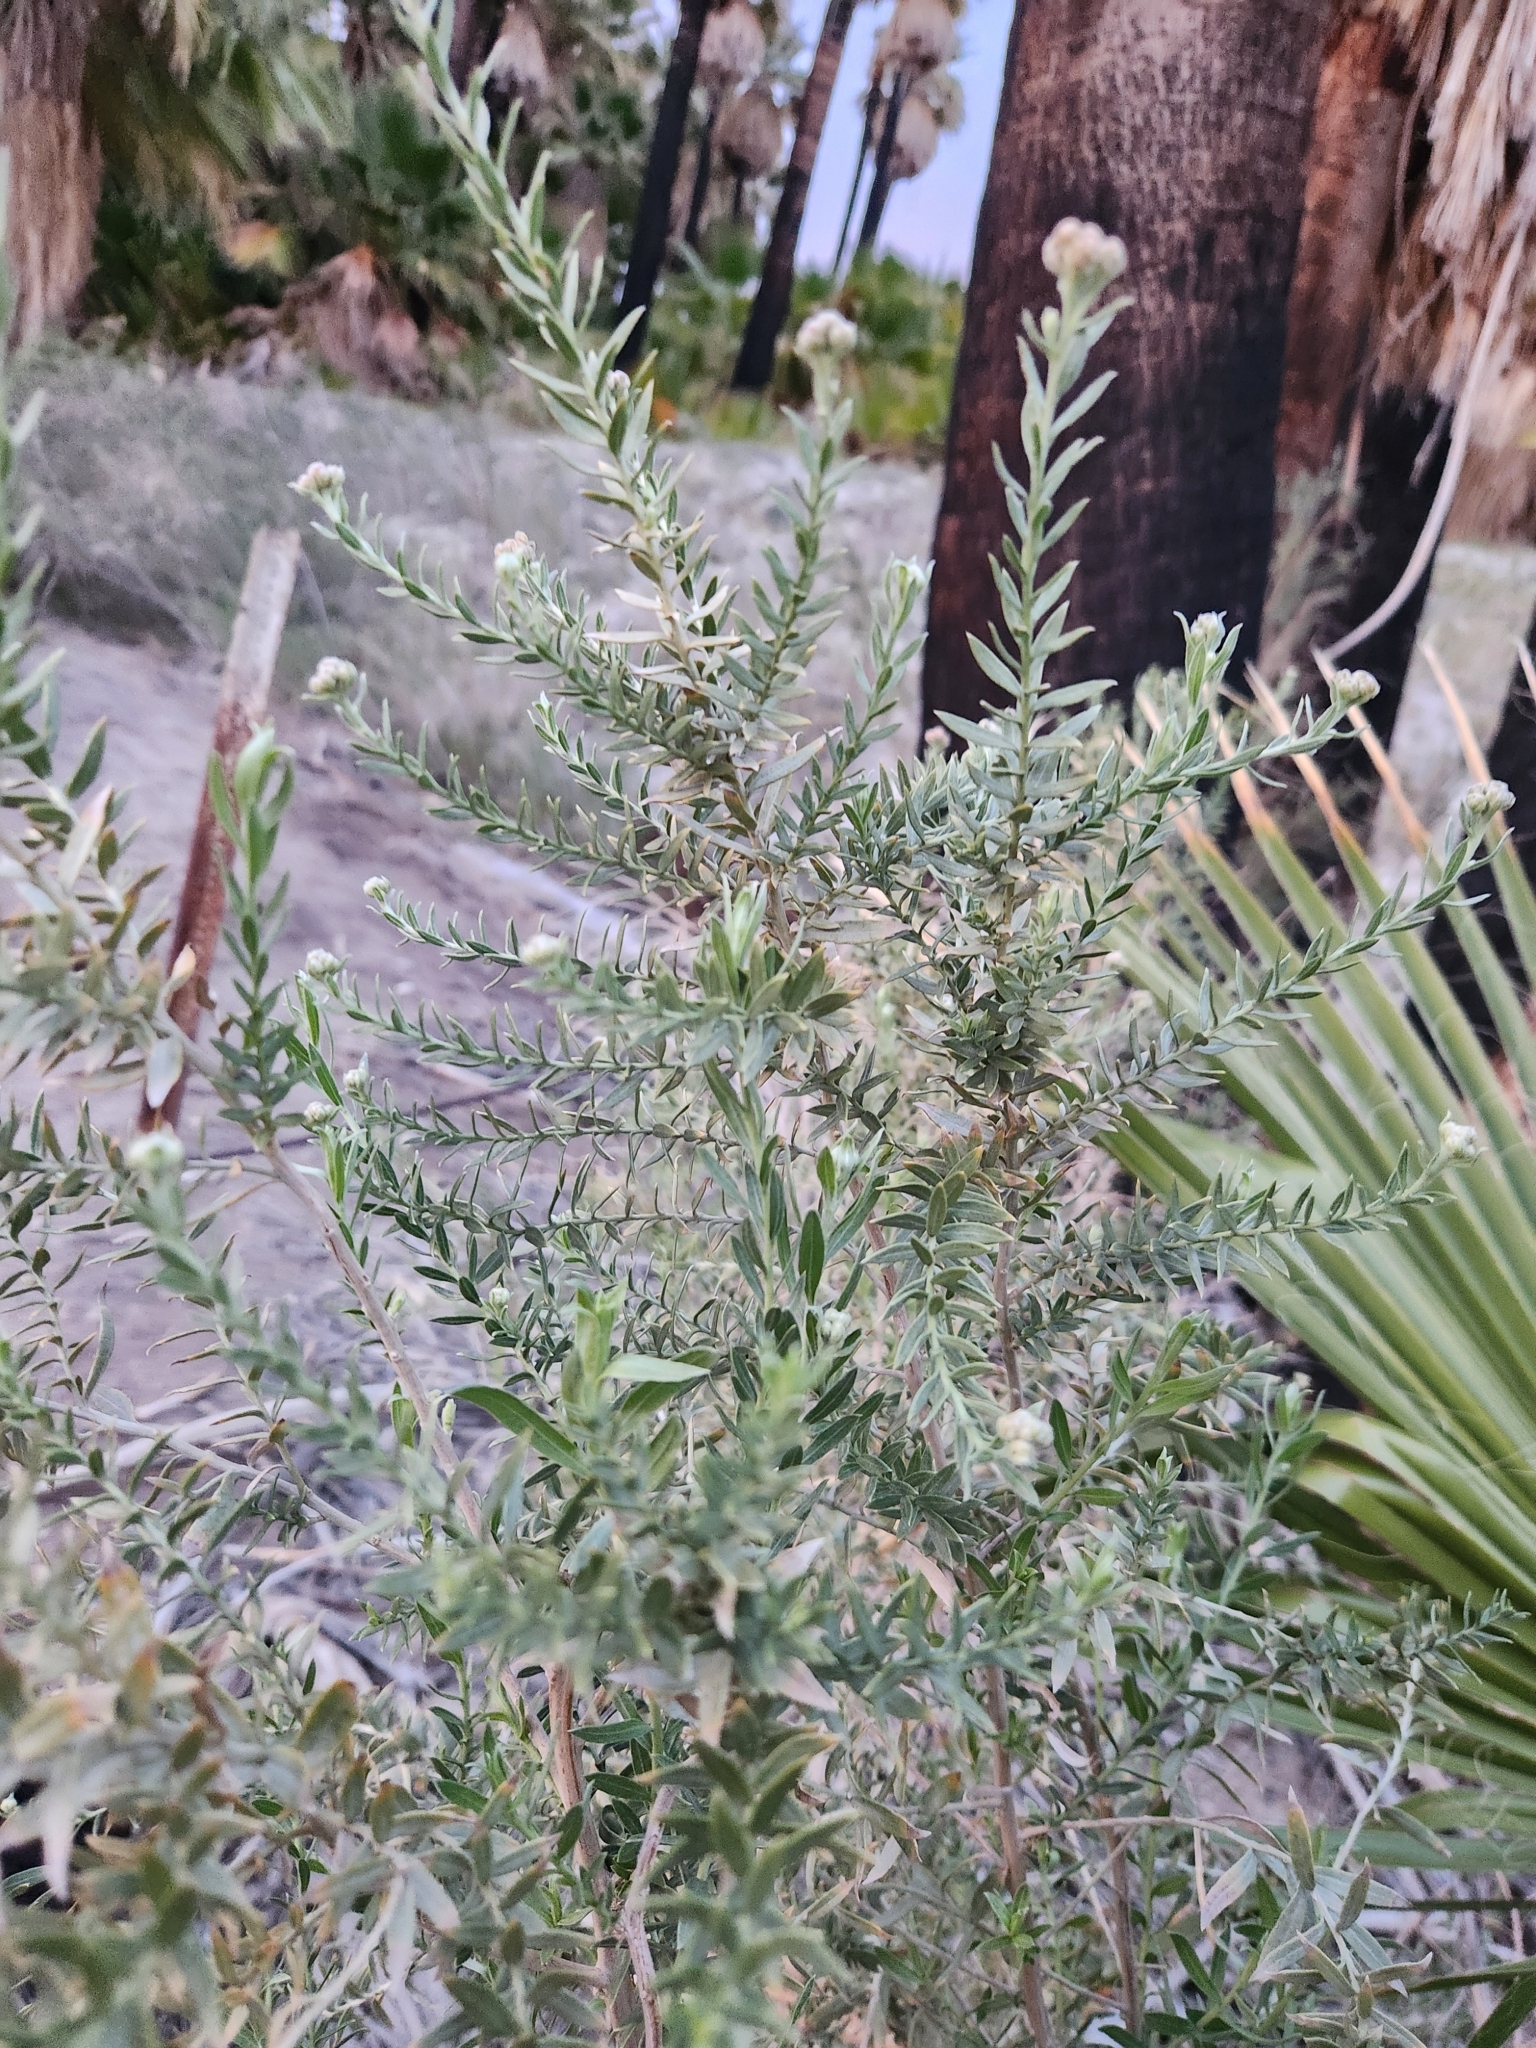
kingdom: Plantae
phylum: Tracheophyta
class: Magnoliopsida
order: Asterales
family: Asteraceae
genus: Pluchea
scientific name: Pluchea sericea
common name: Arrow-weed
